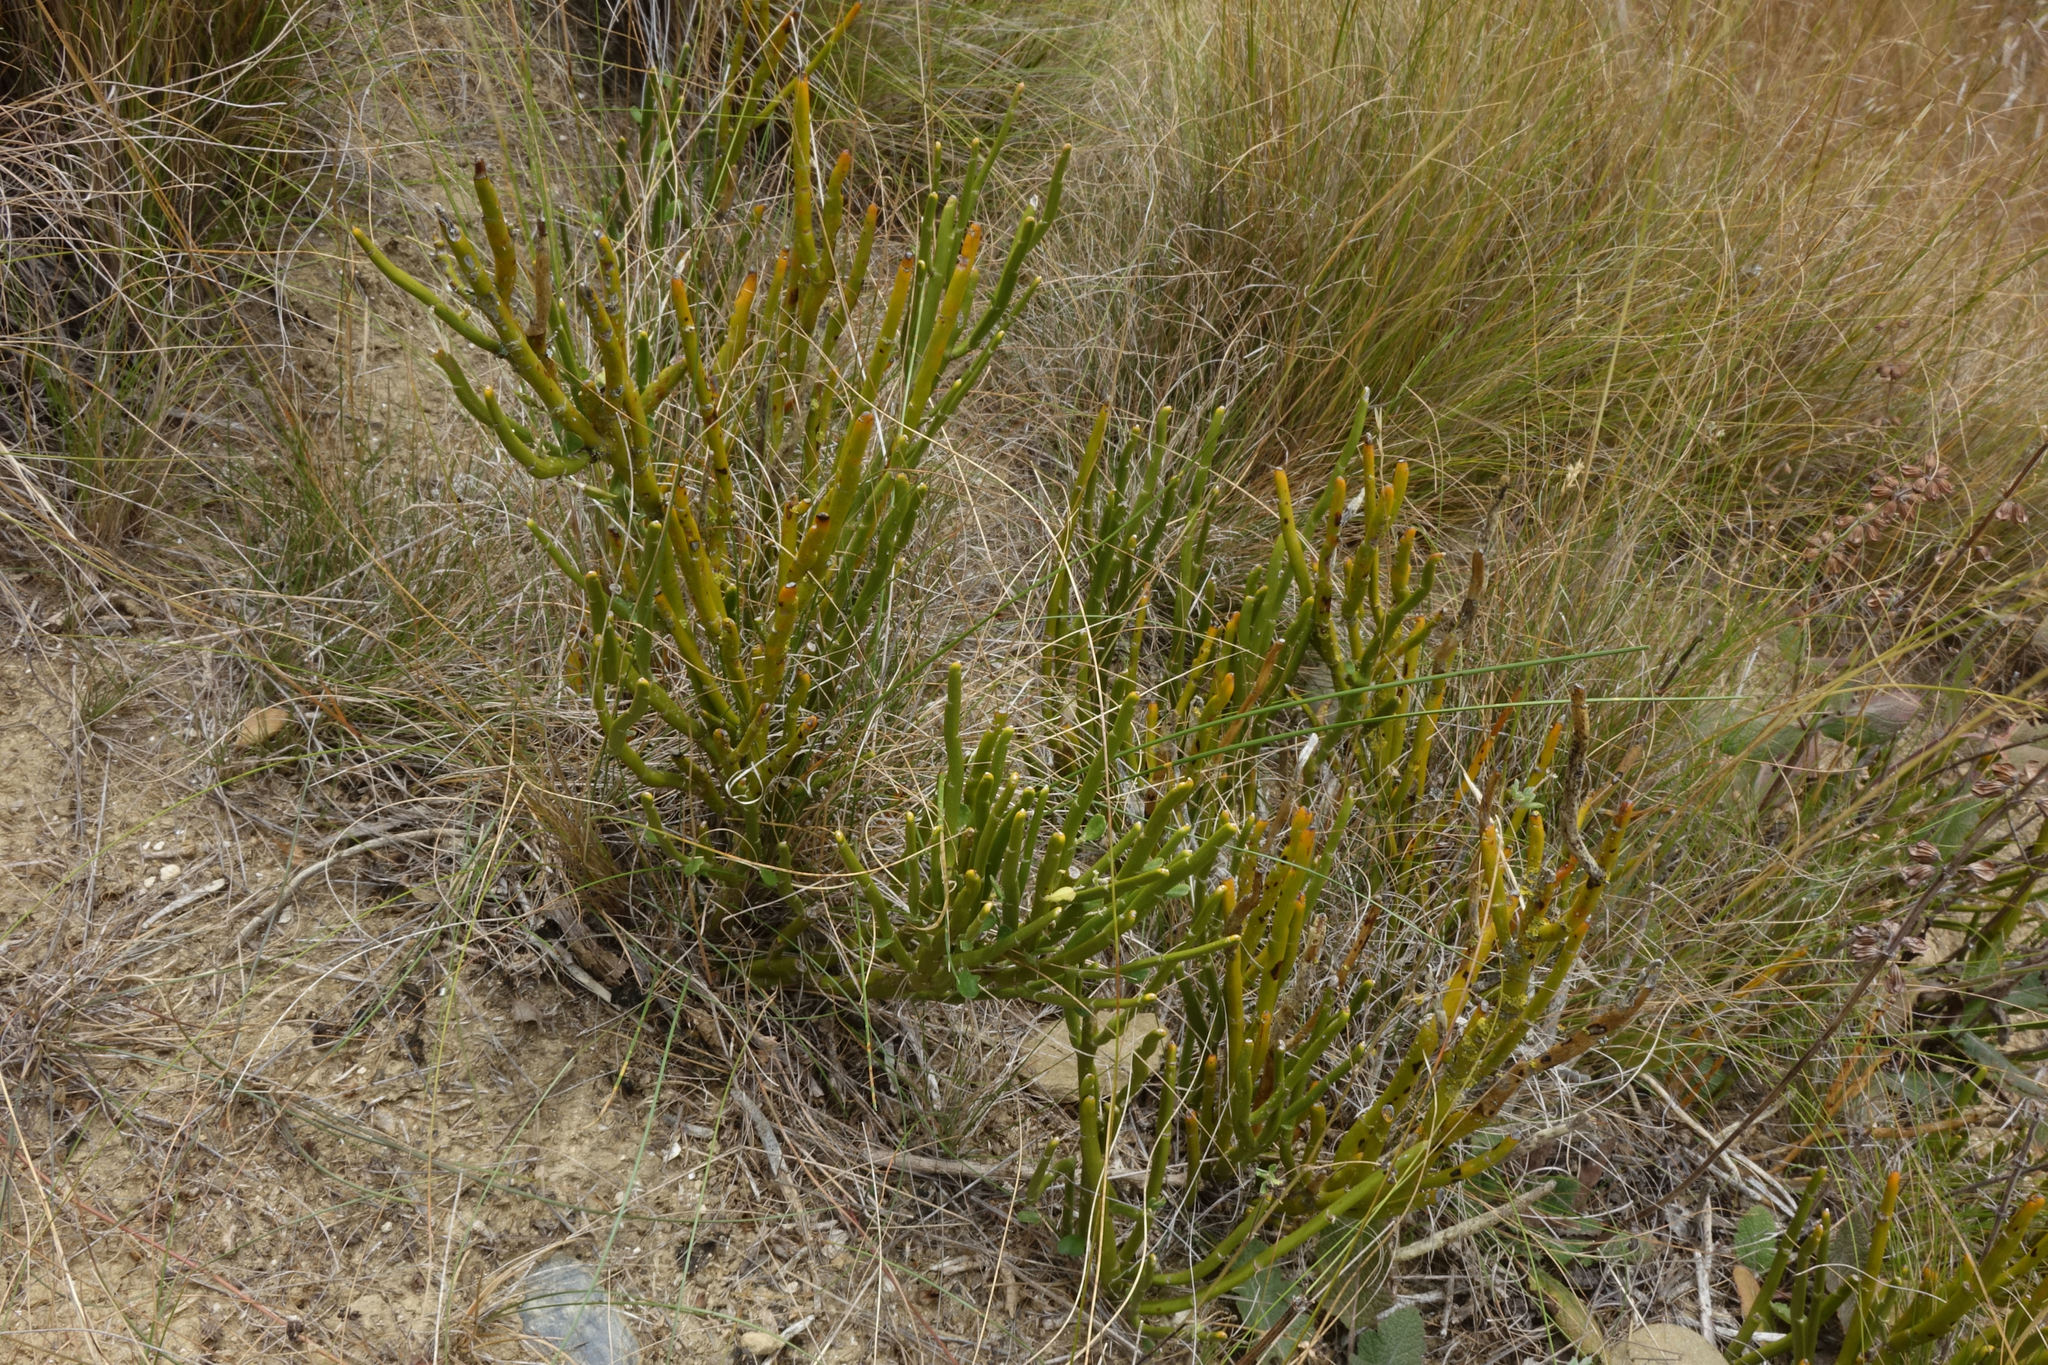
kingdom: Plantae
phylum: Tracheophyta
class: Magnoliopsida
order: Fabales
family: Fabaceae
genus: Carmichaelia
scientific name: Carmichaelia hollowayi
